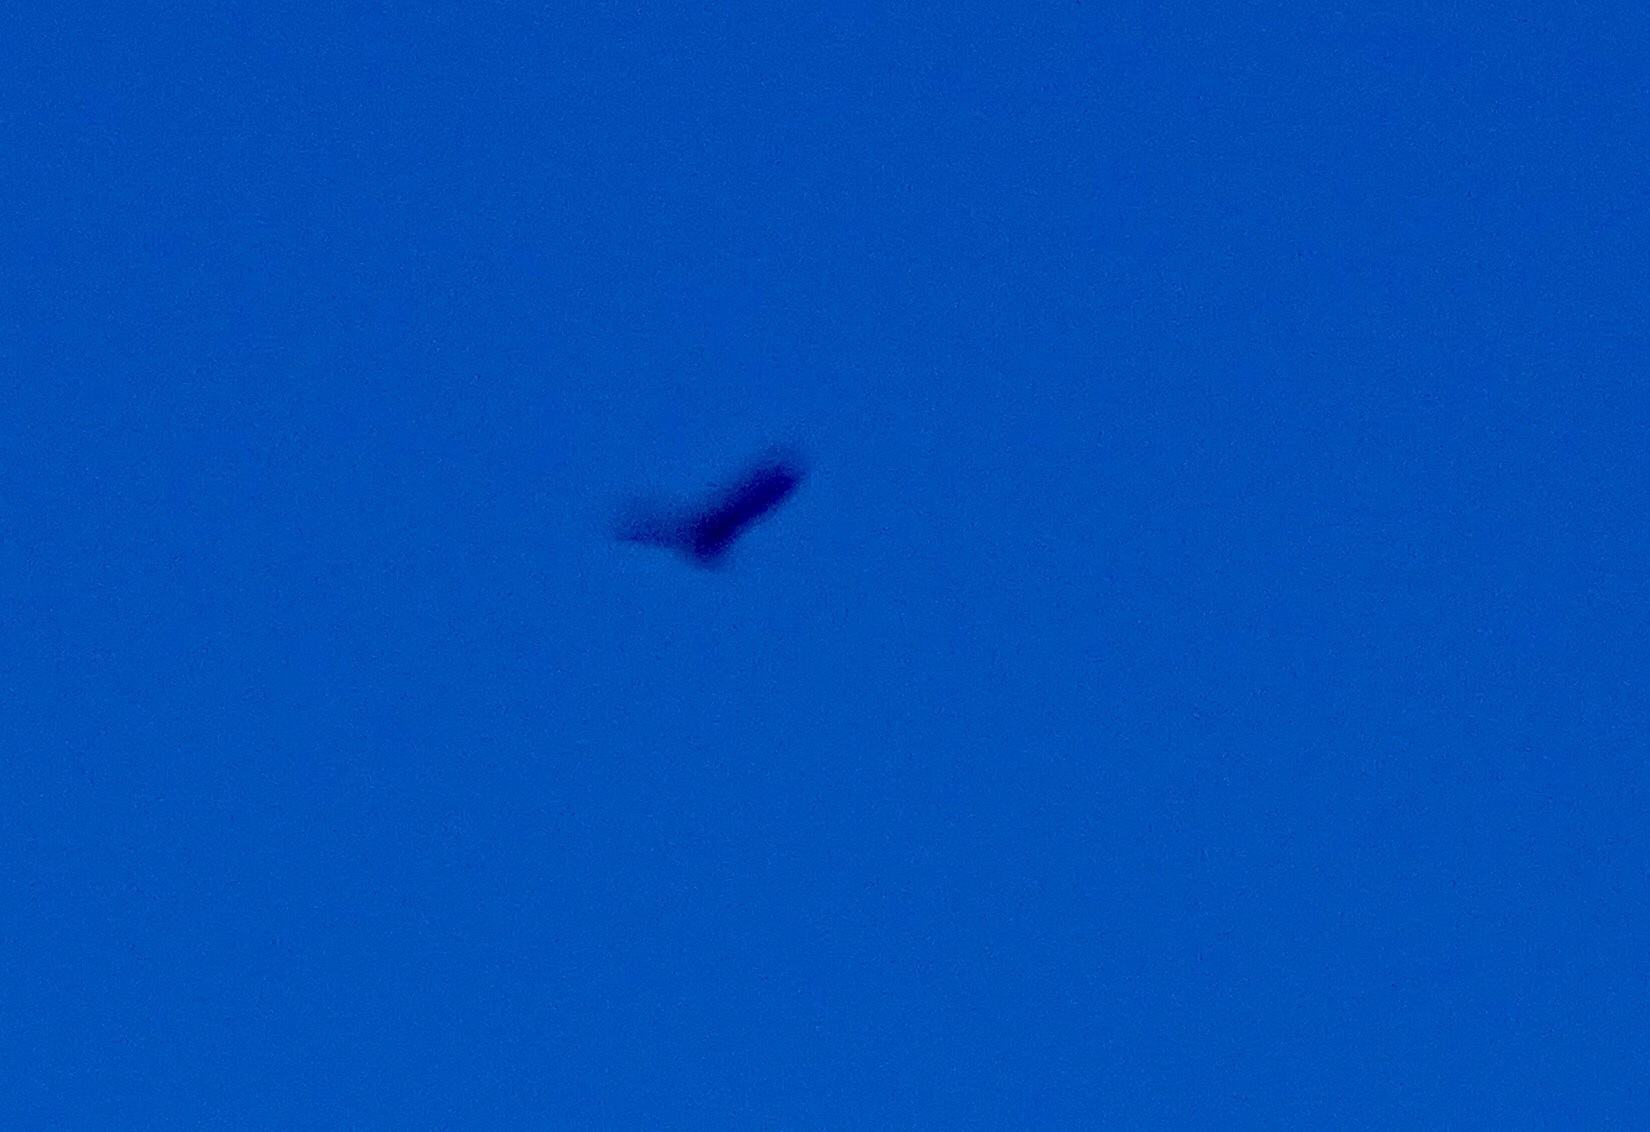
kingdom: Animalia
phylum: Chordata
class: Aves
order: Accipitriformes
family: Cathartidae
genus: Cathartes
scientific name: Cathartes aura
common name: Turkey vulture
